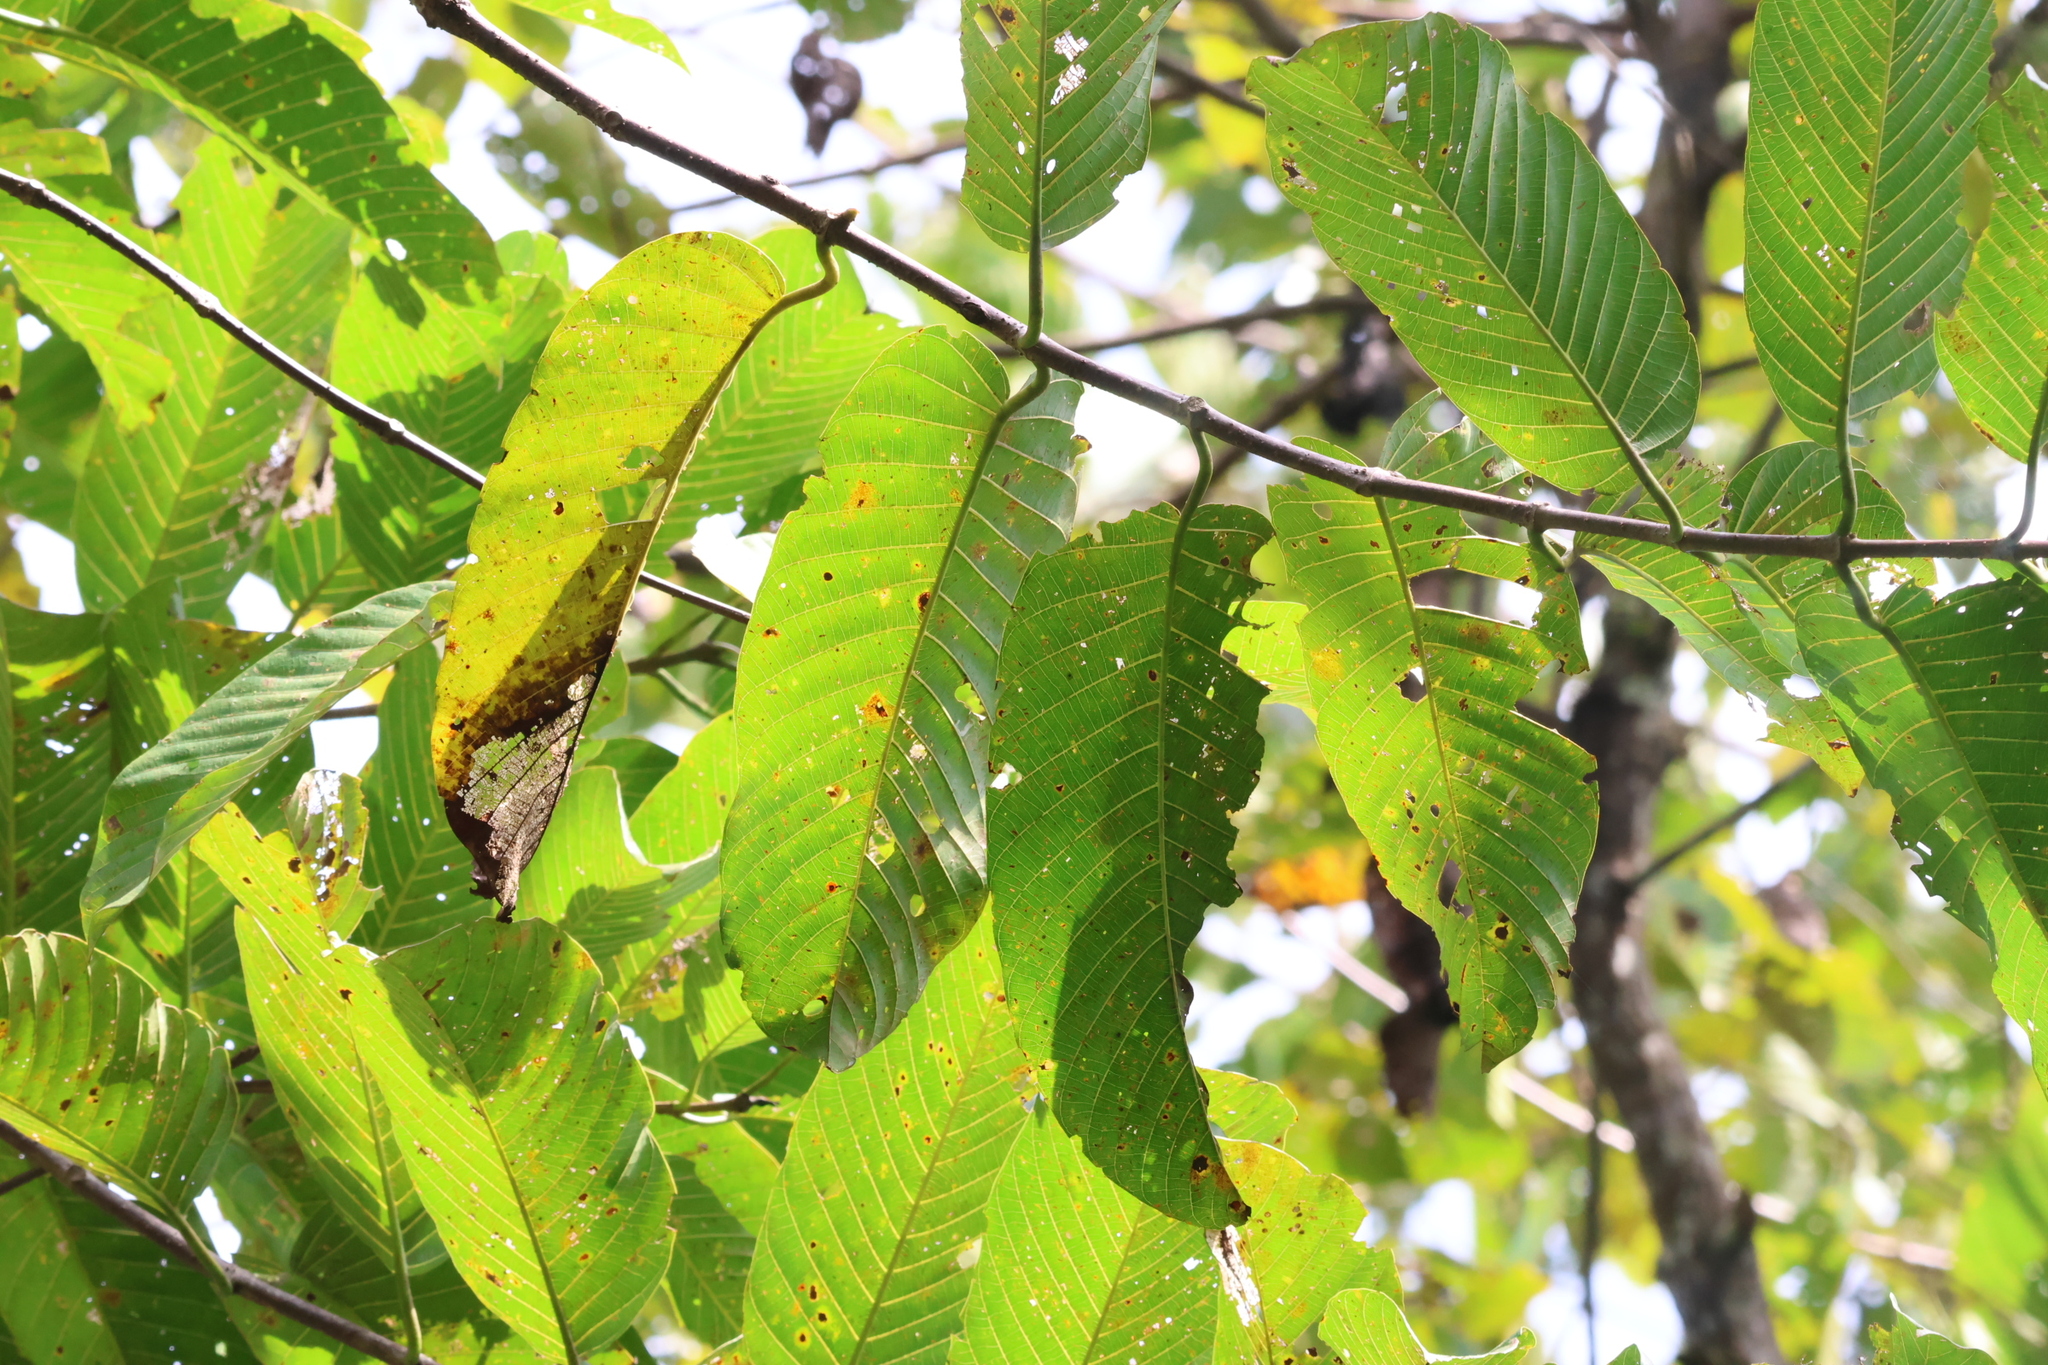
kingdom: Plantae
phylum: Tracheophyta
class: Magnoliopsida
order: Gentianales
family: Rubiaceae
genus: Neolamarckia
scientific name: Neolamarckia cadamba
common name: Leichhardt-pine
